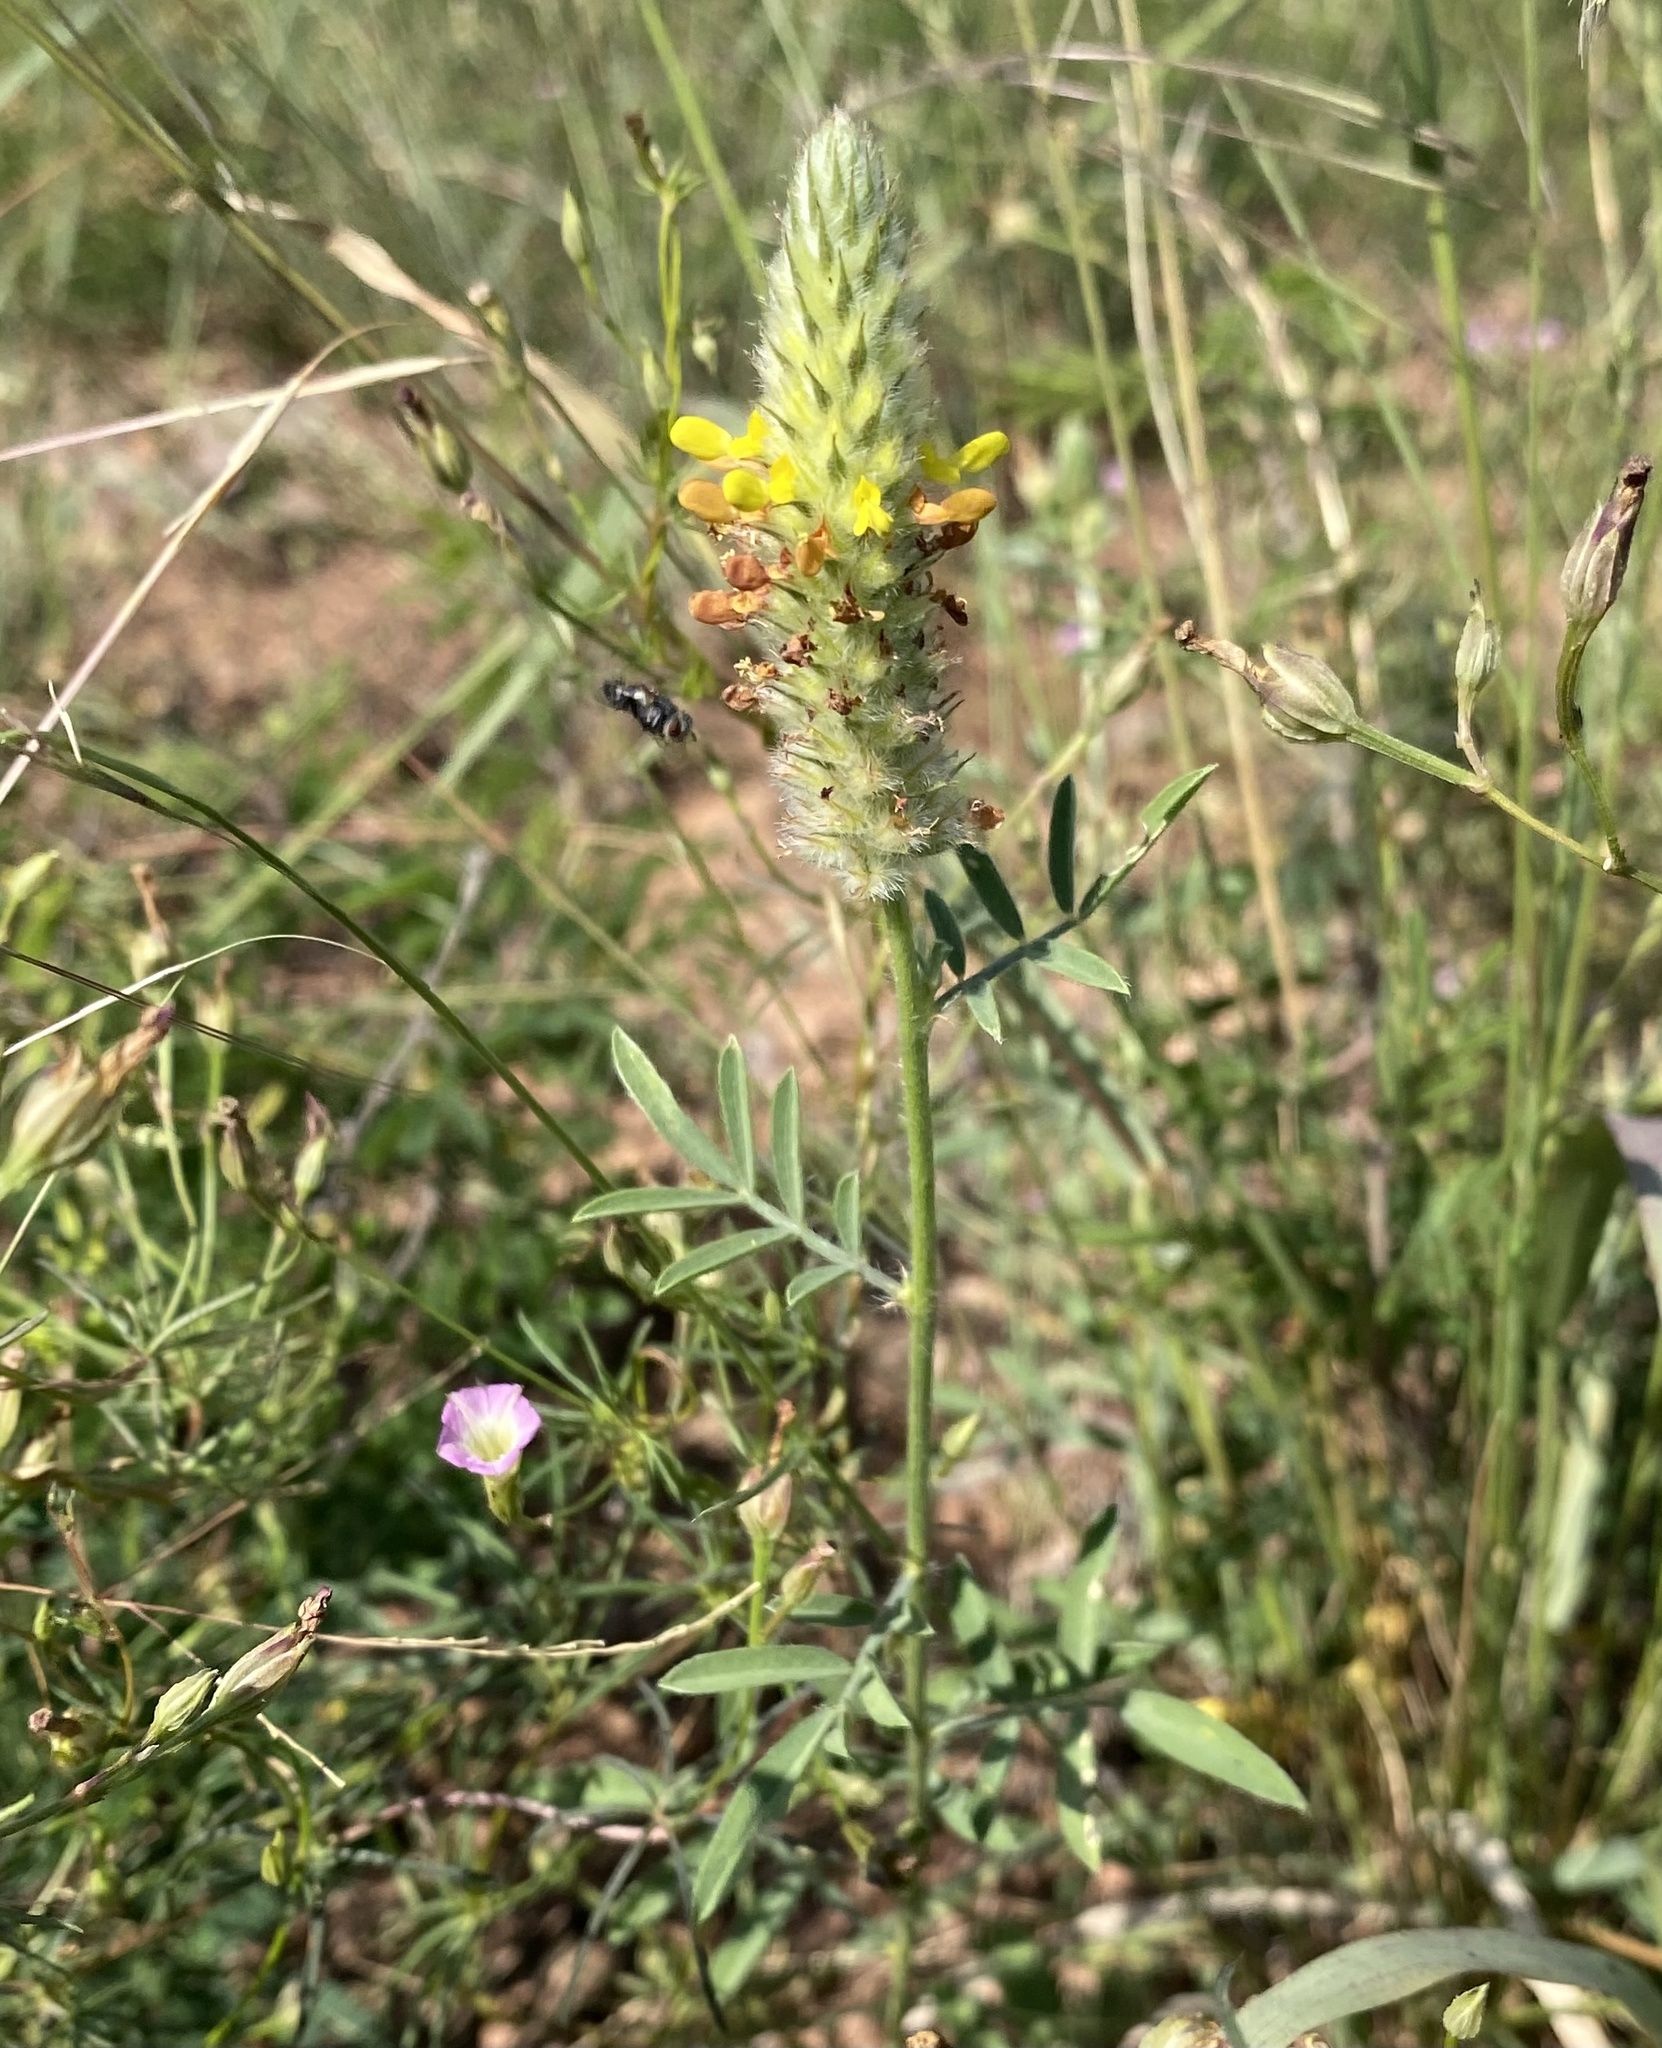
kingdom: Plantae
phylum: Tracheophyta
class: Magnoliopsida
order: Fabales
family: Fabaceae
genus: Dalea
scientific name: Dalea nana
